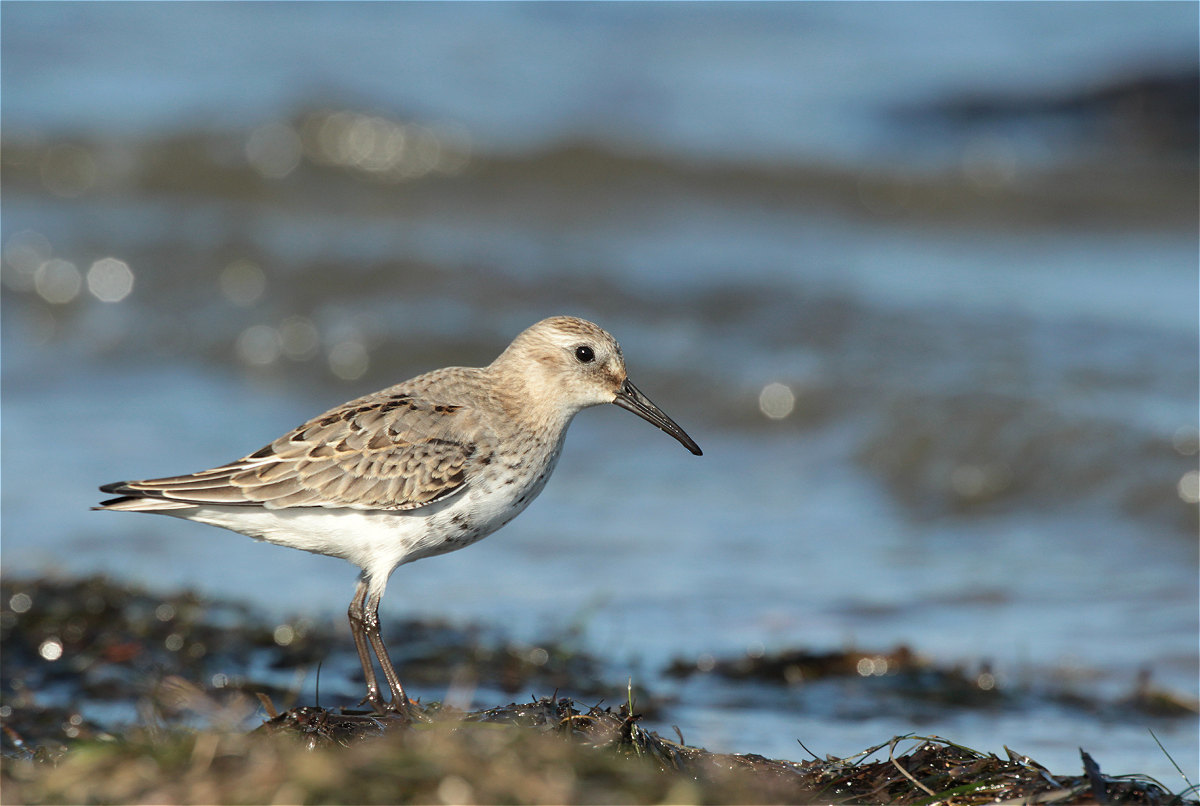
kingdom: Animalia
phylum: Chordata
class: Aves
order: Charadriiformes
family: Scolopacidae
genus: Calidris
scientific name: Calidris alpina
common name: Dunlin
